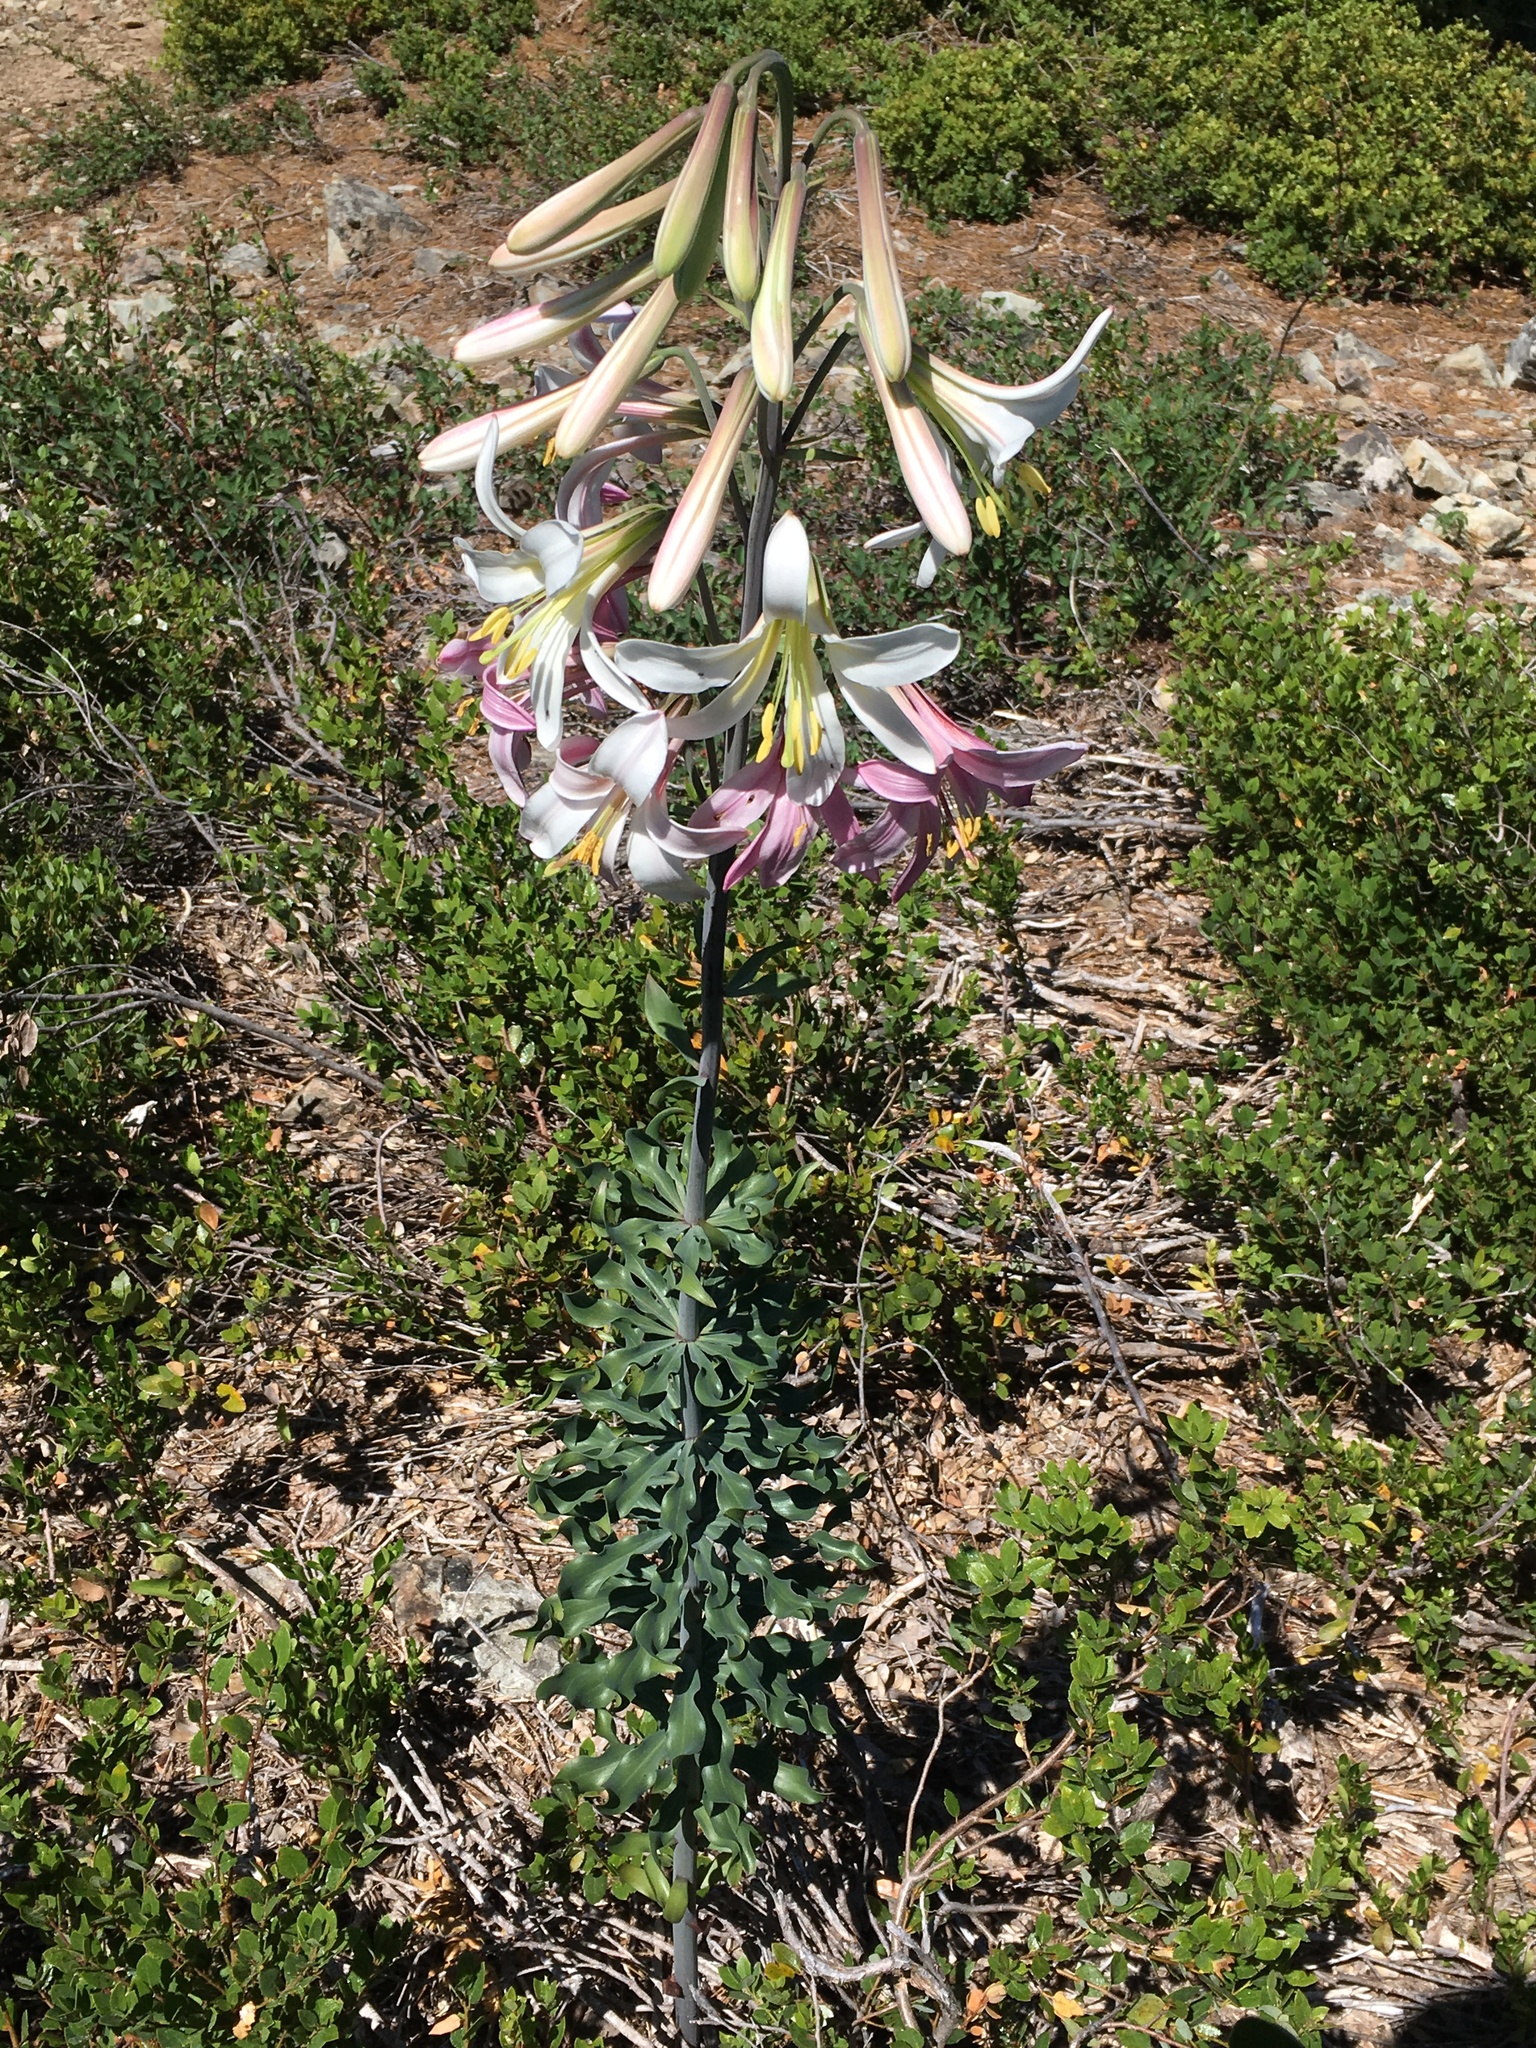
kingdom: Plantae
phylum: Tracheophyta
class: Liliopsida
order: Liliales
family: Liliaceae
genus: Lilium
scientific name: Lilium washingtonianum
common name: Washington lily
